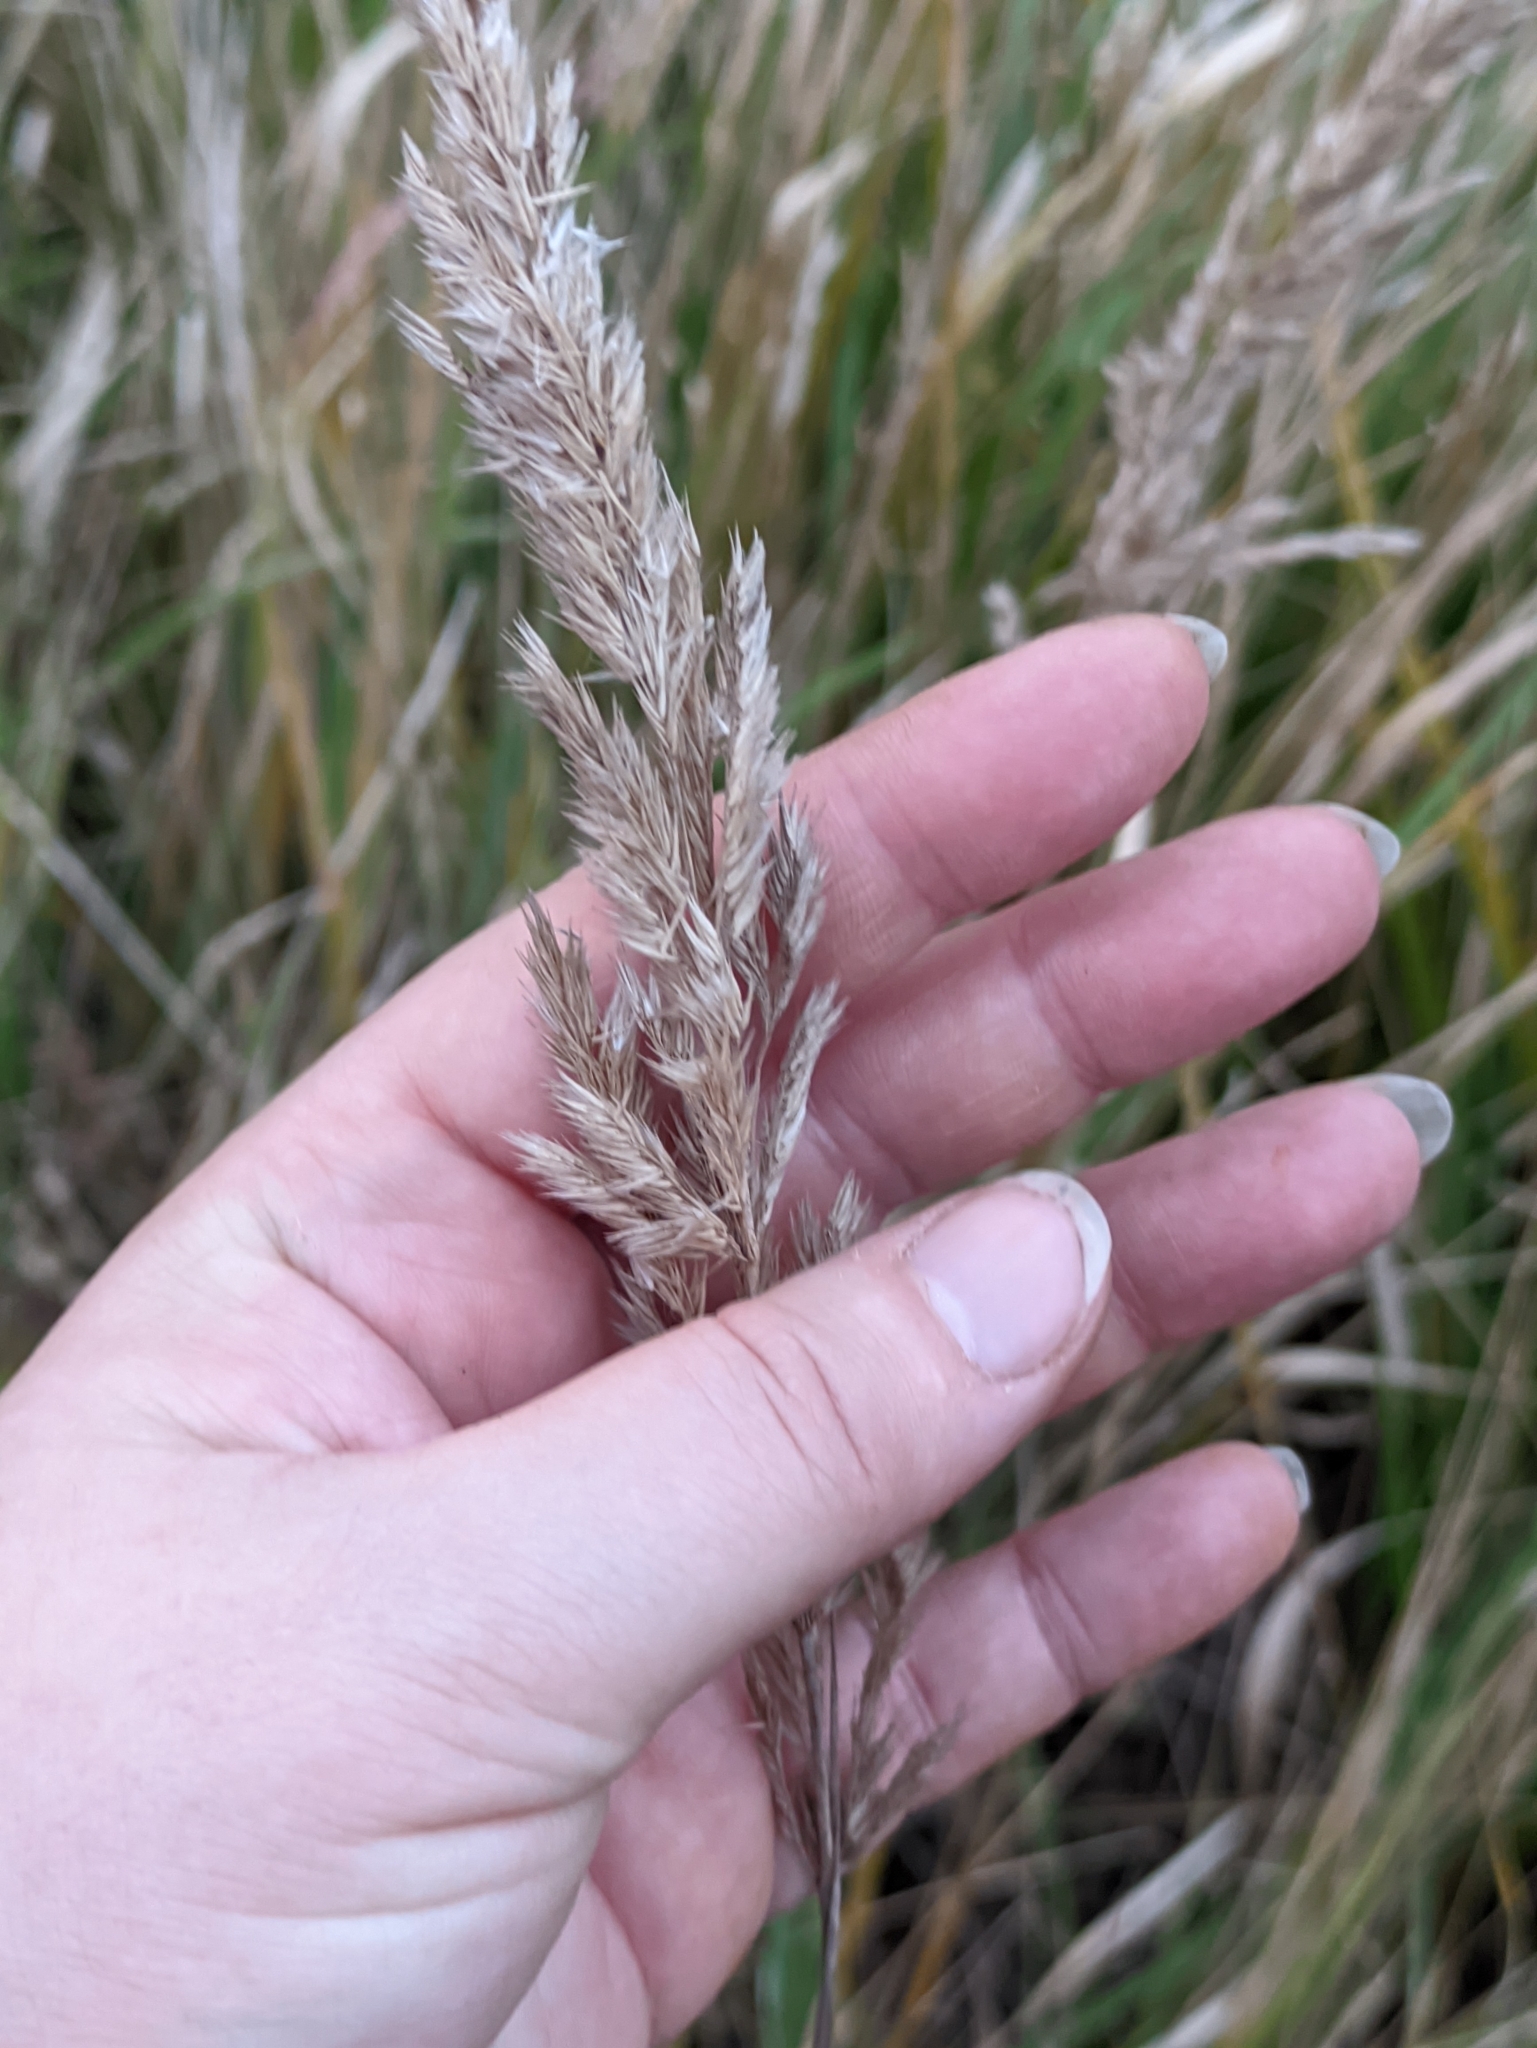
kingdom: Plantae
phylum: Tracheophyta
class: Liliopsida
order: Poales
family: Poaceae
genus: Calamagrostis
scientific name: Calamagrostis epigejos
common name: Wood small-reed
